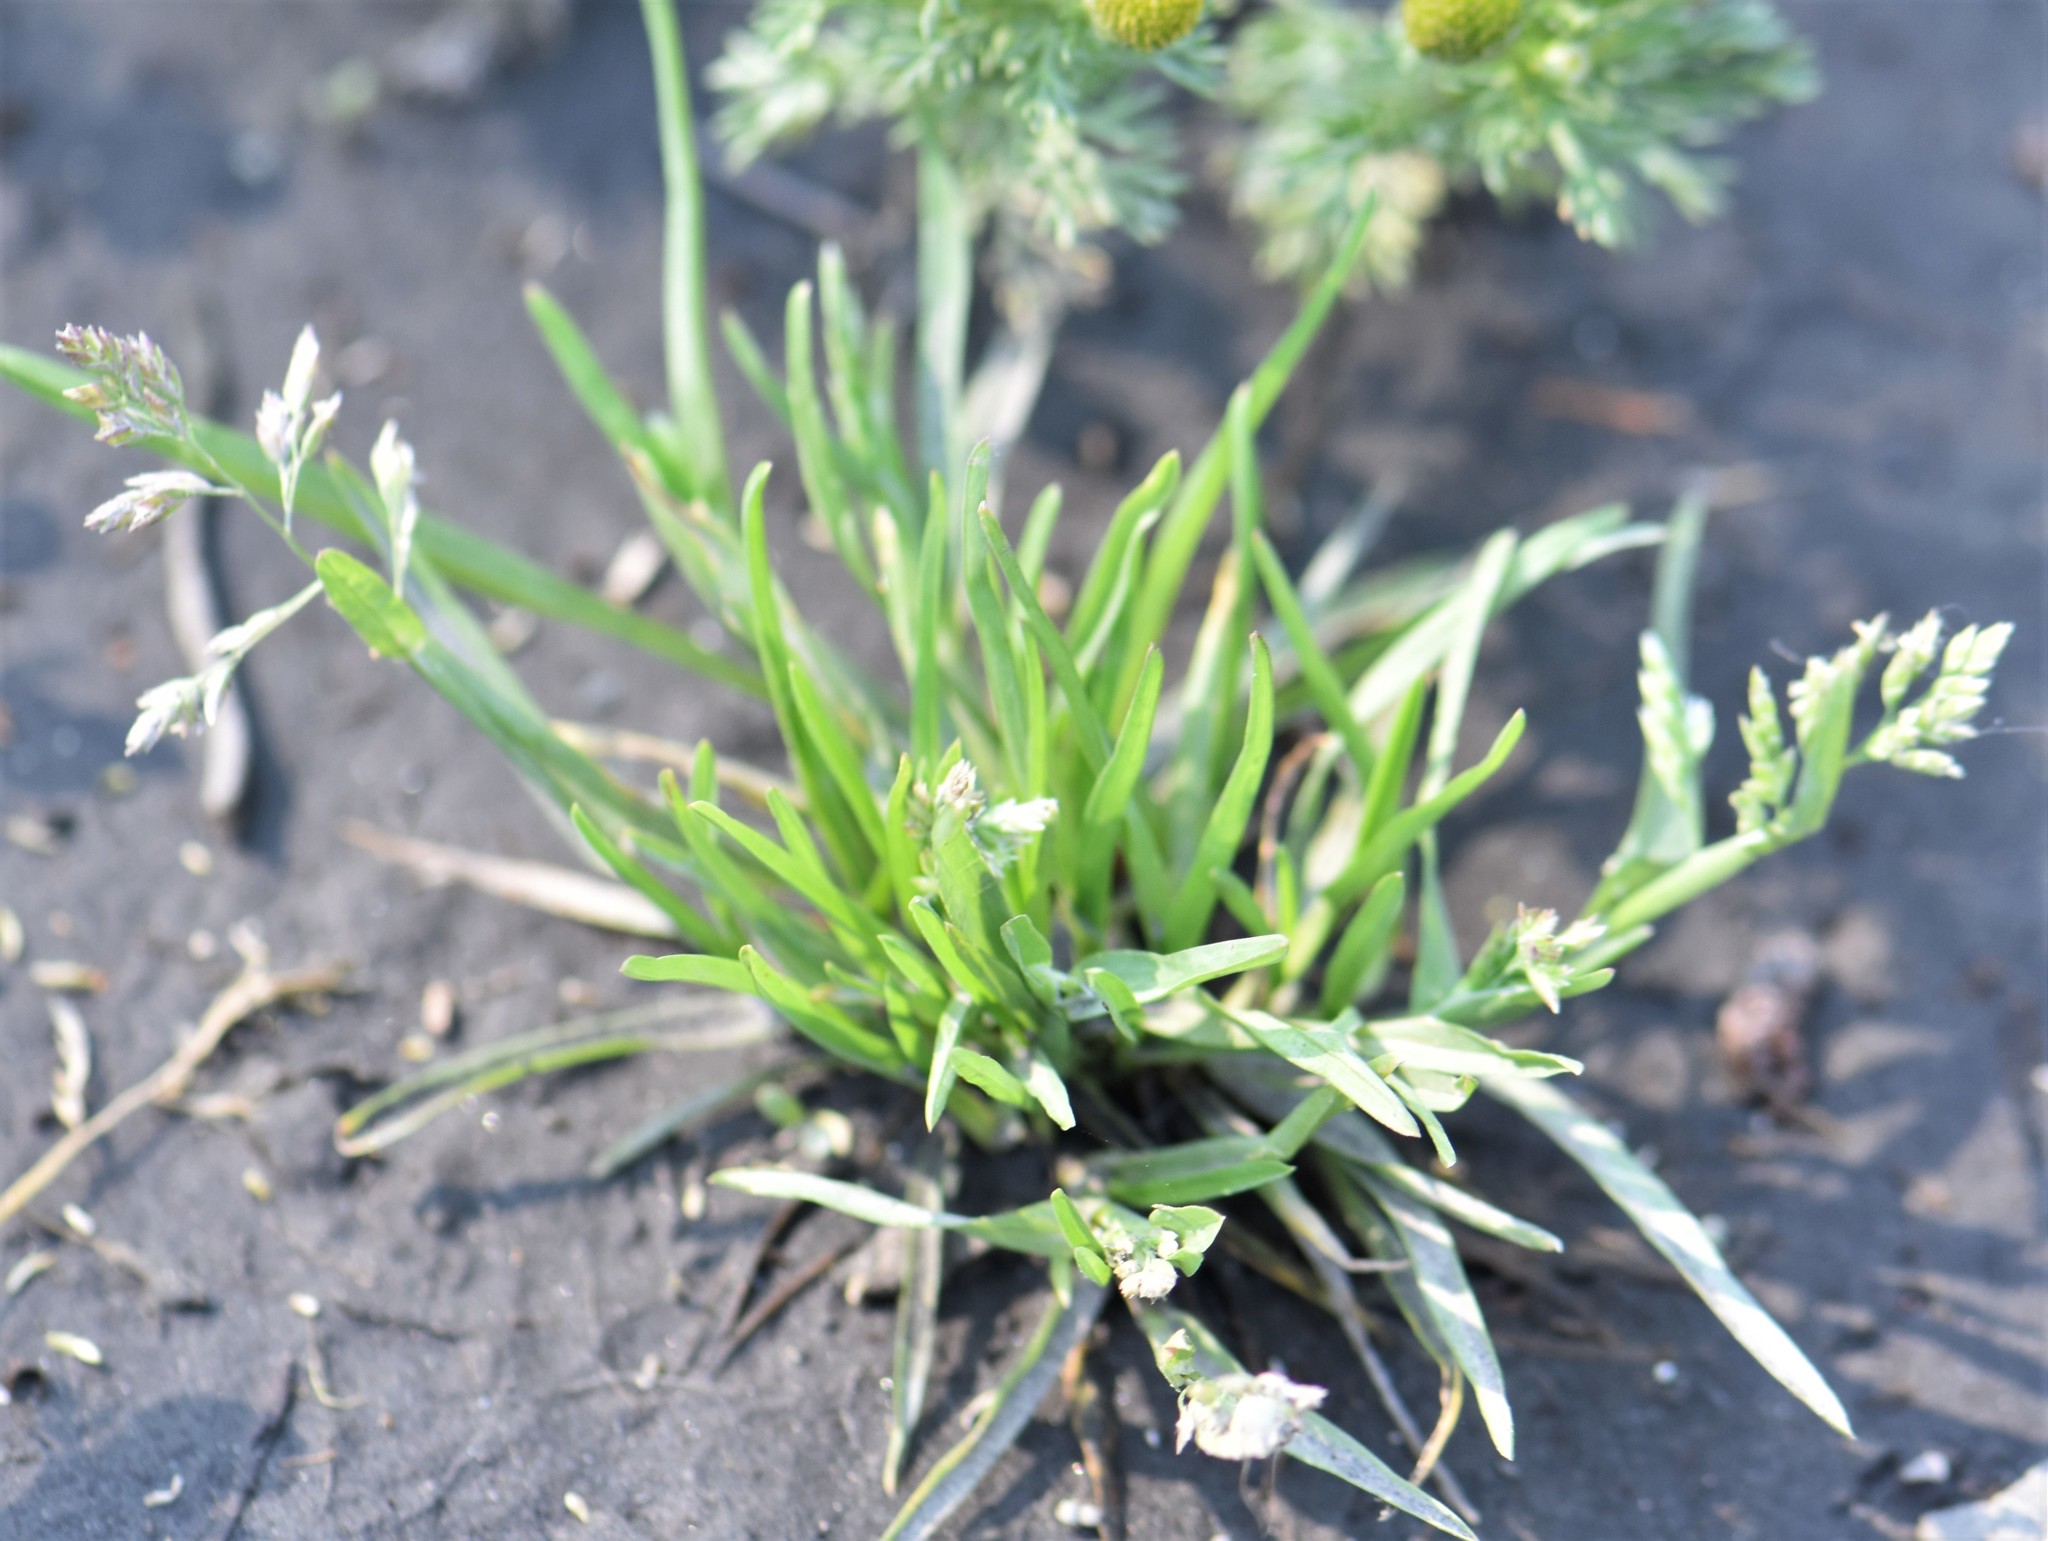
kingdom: Plantae
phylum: Tracheophyta
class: Liliopsida
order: Poales
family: Poaceae
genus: Poa
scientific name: Poa annua
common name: Annual bluegrass
